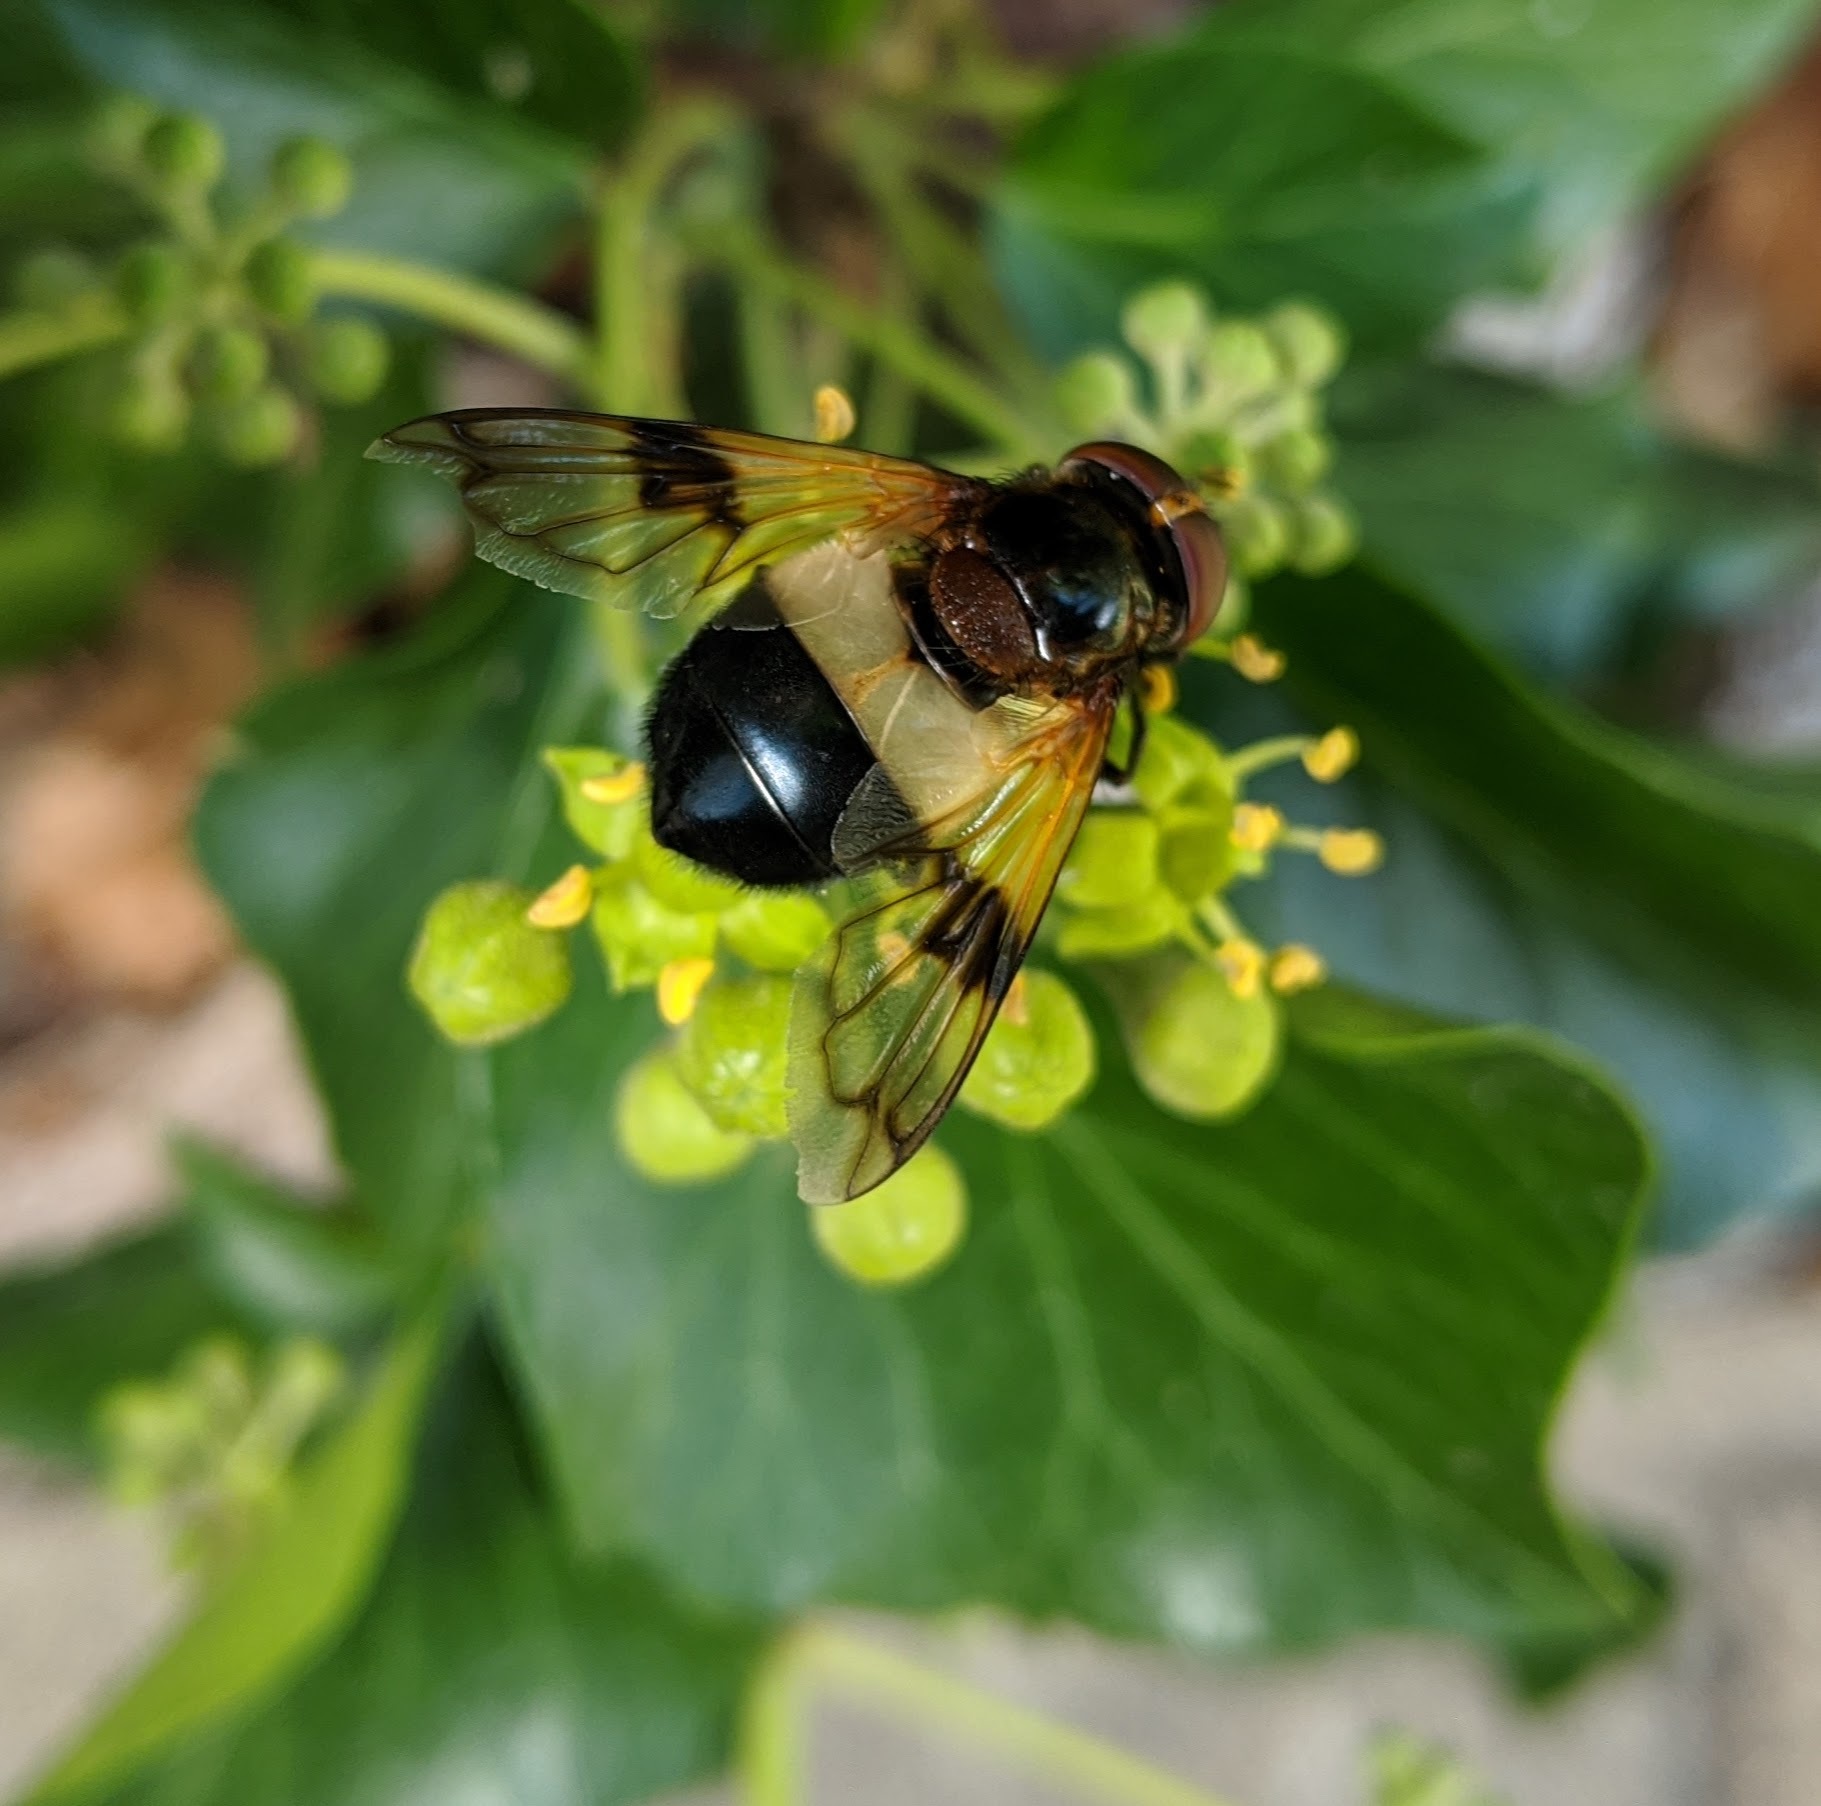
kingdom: Animalia
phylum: Arthropoda
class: Insecta
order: Diptera
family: Syrphidae
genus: Volucella
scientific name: Volucella pellucens
